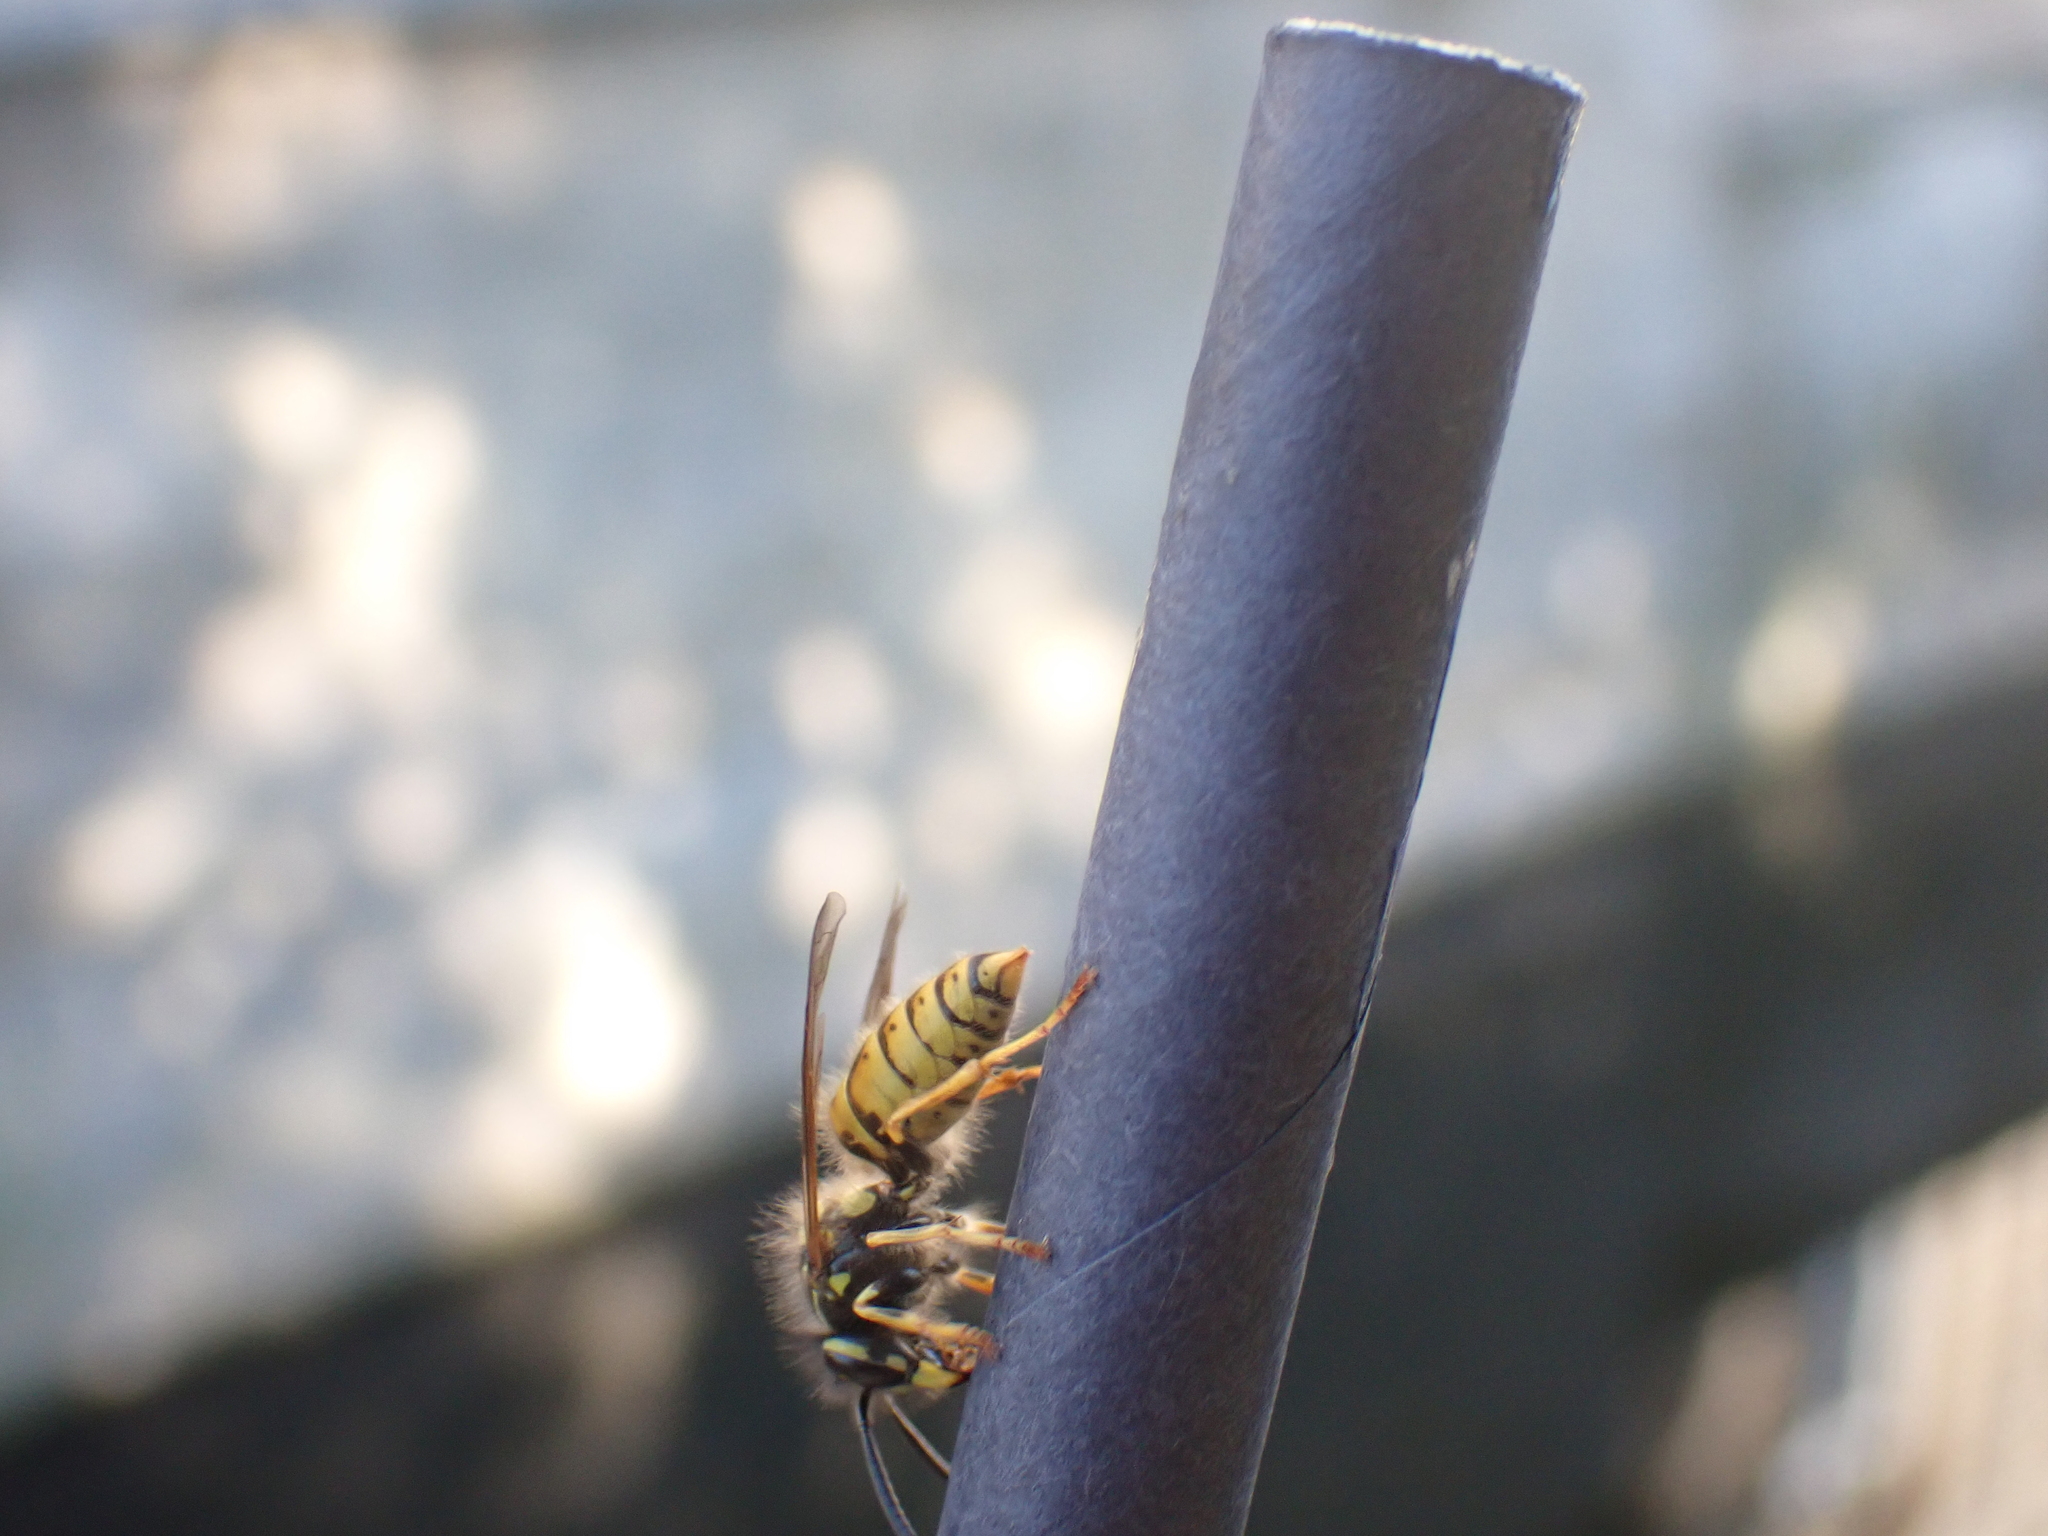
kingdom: Animalia
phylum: Arthropoda
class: Insecta
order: Hymenoptera
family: Vespidae
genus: Vespula
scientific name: Vespula vulgaris
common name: Common wasp
